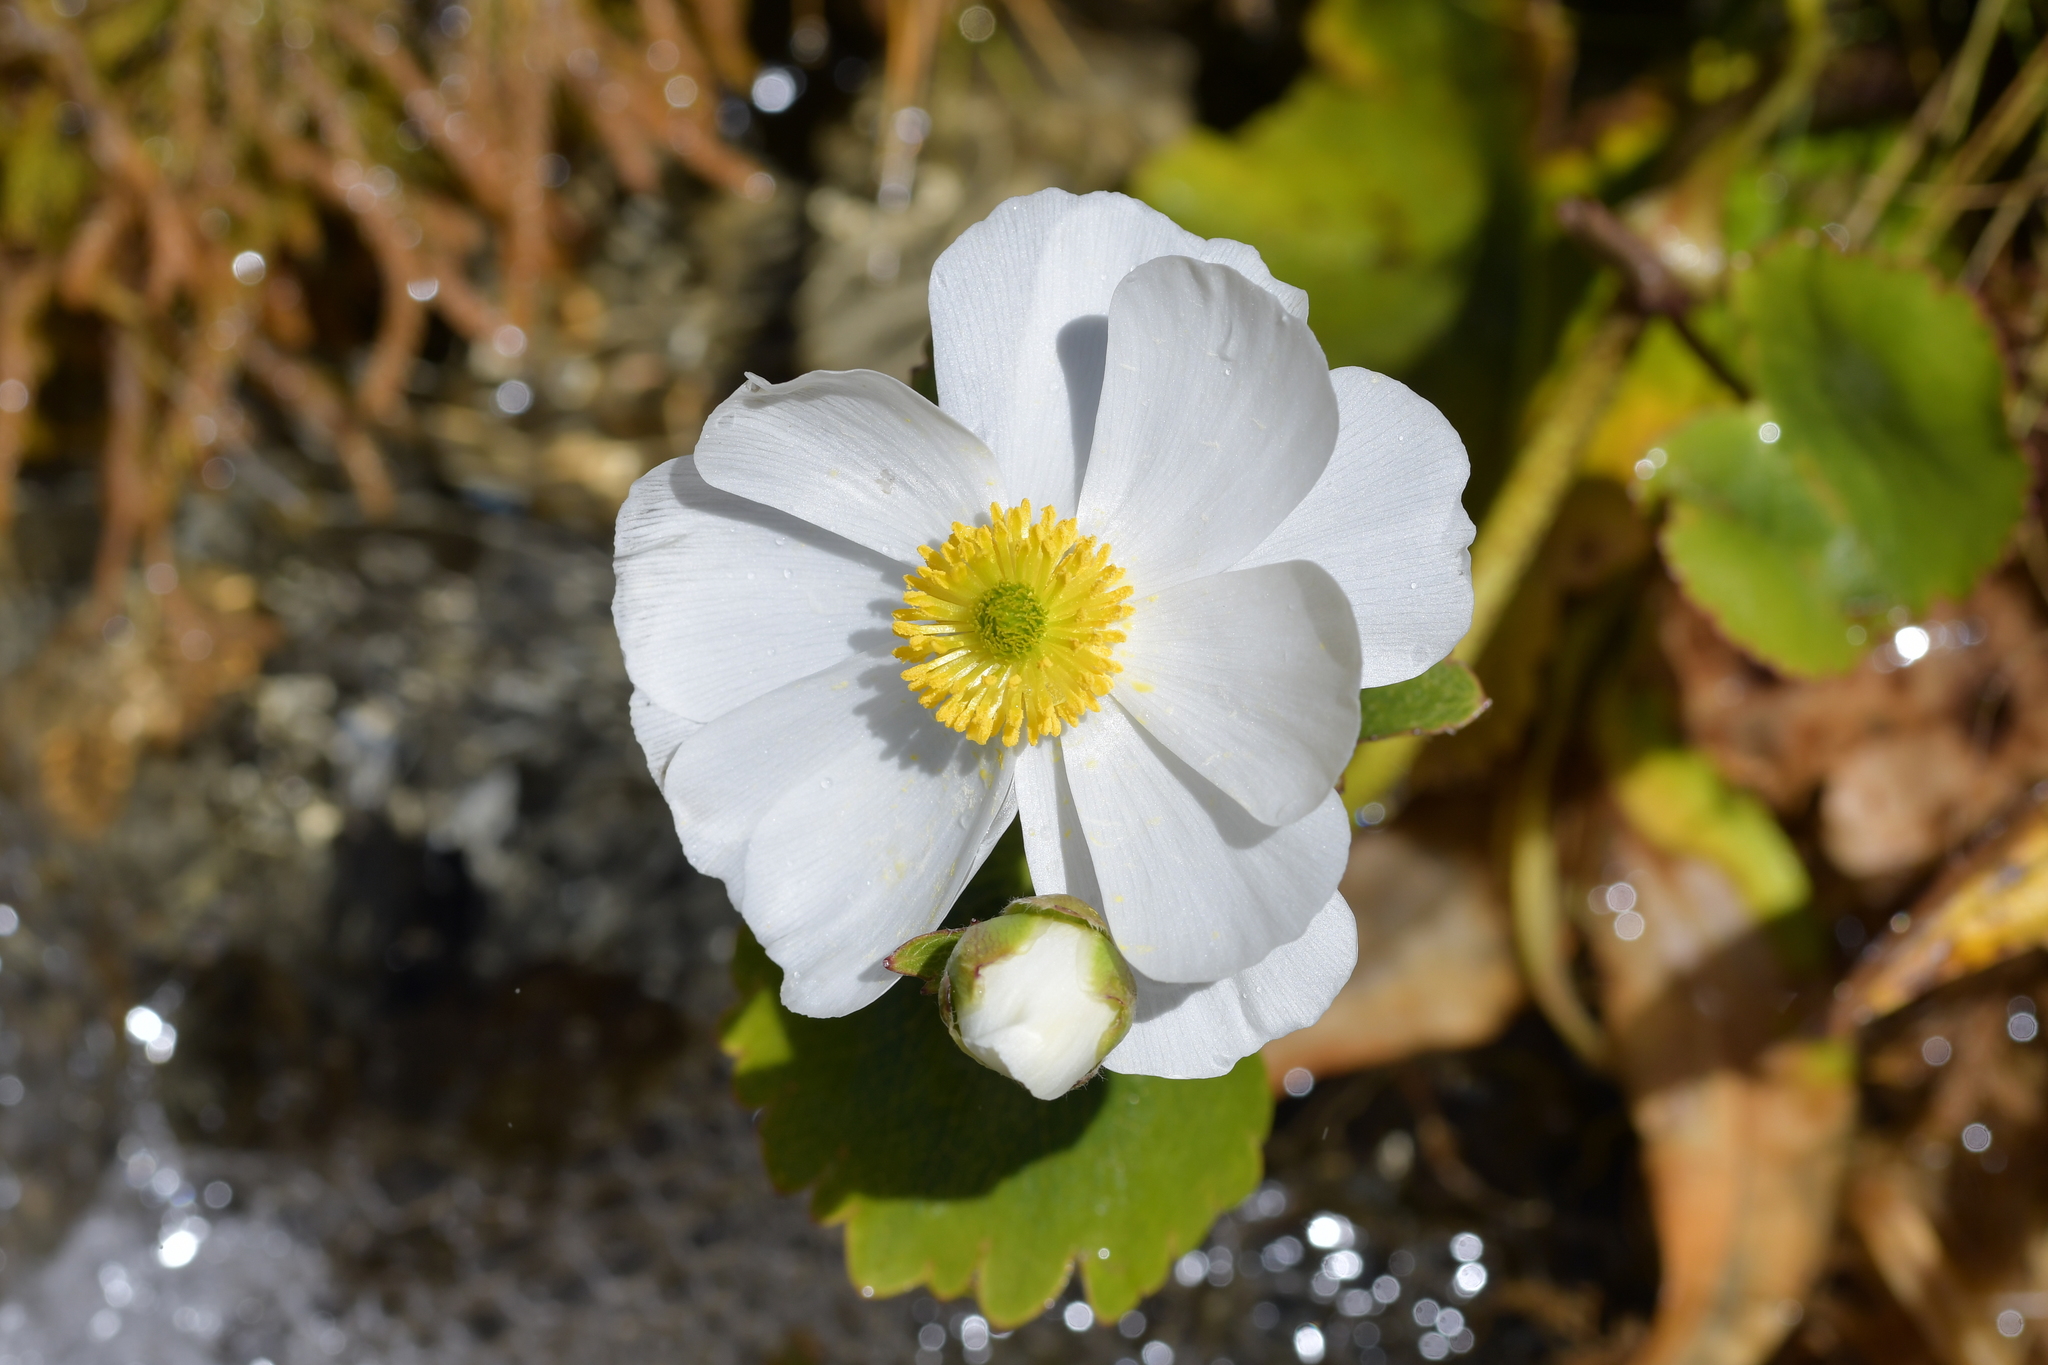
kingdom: Plantae
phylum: Tracheophyta
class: Magnoliopsida
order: Ranunculales
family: Ranunculaceae
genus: Ranunculus
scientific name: Ranunculus lyallii
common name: Mountain-lily
